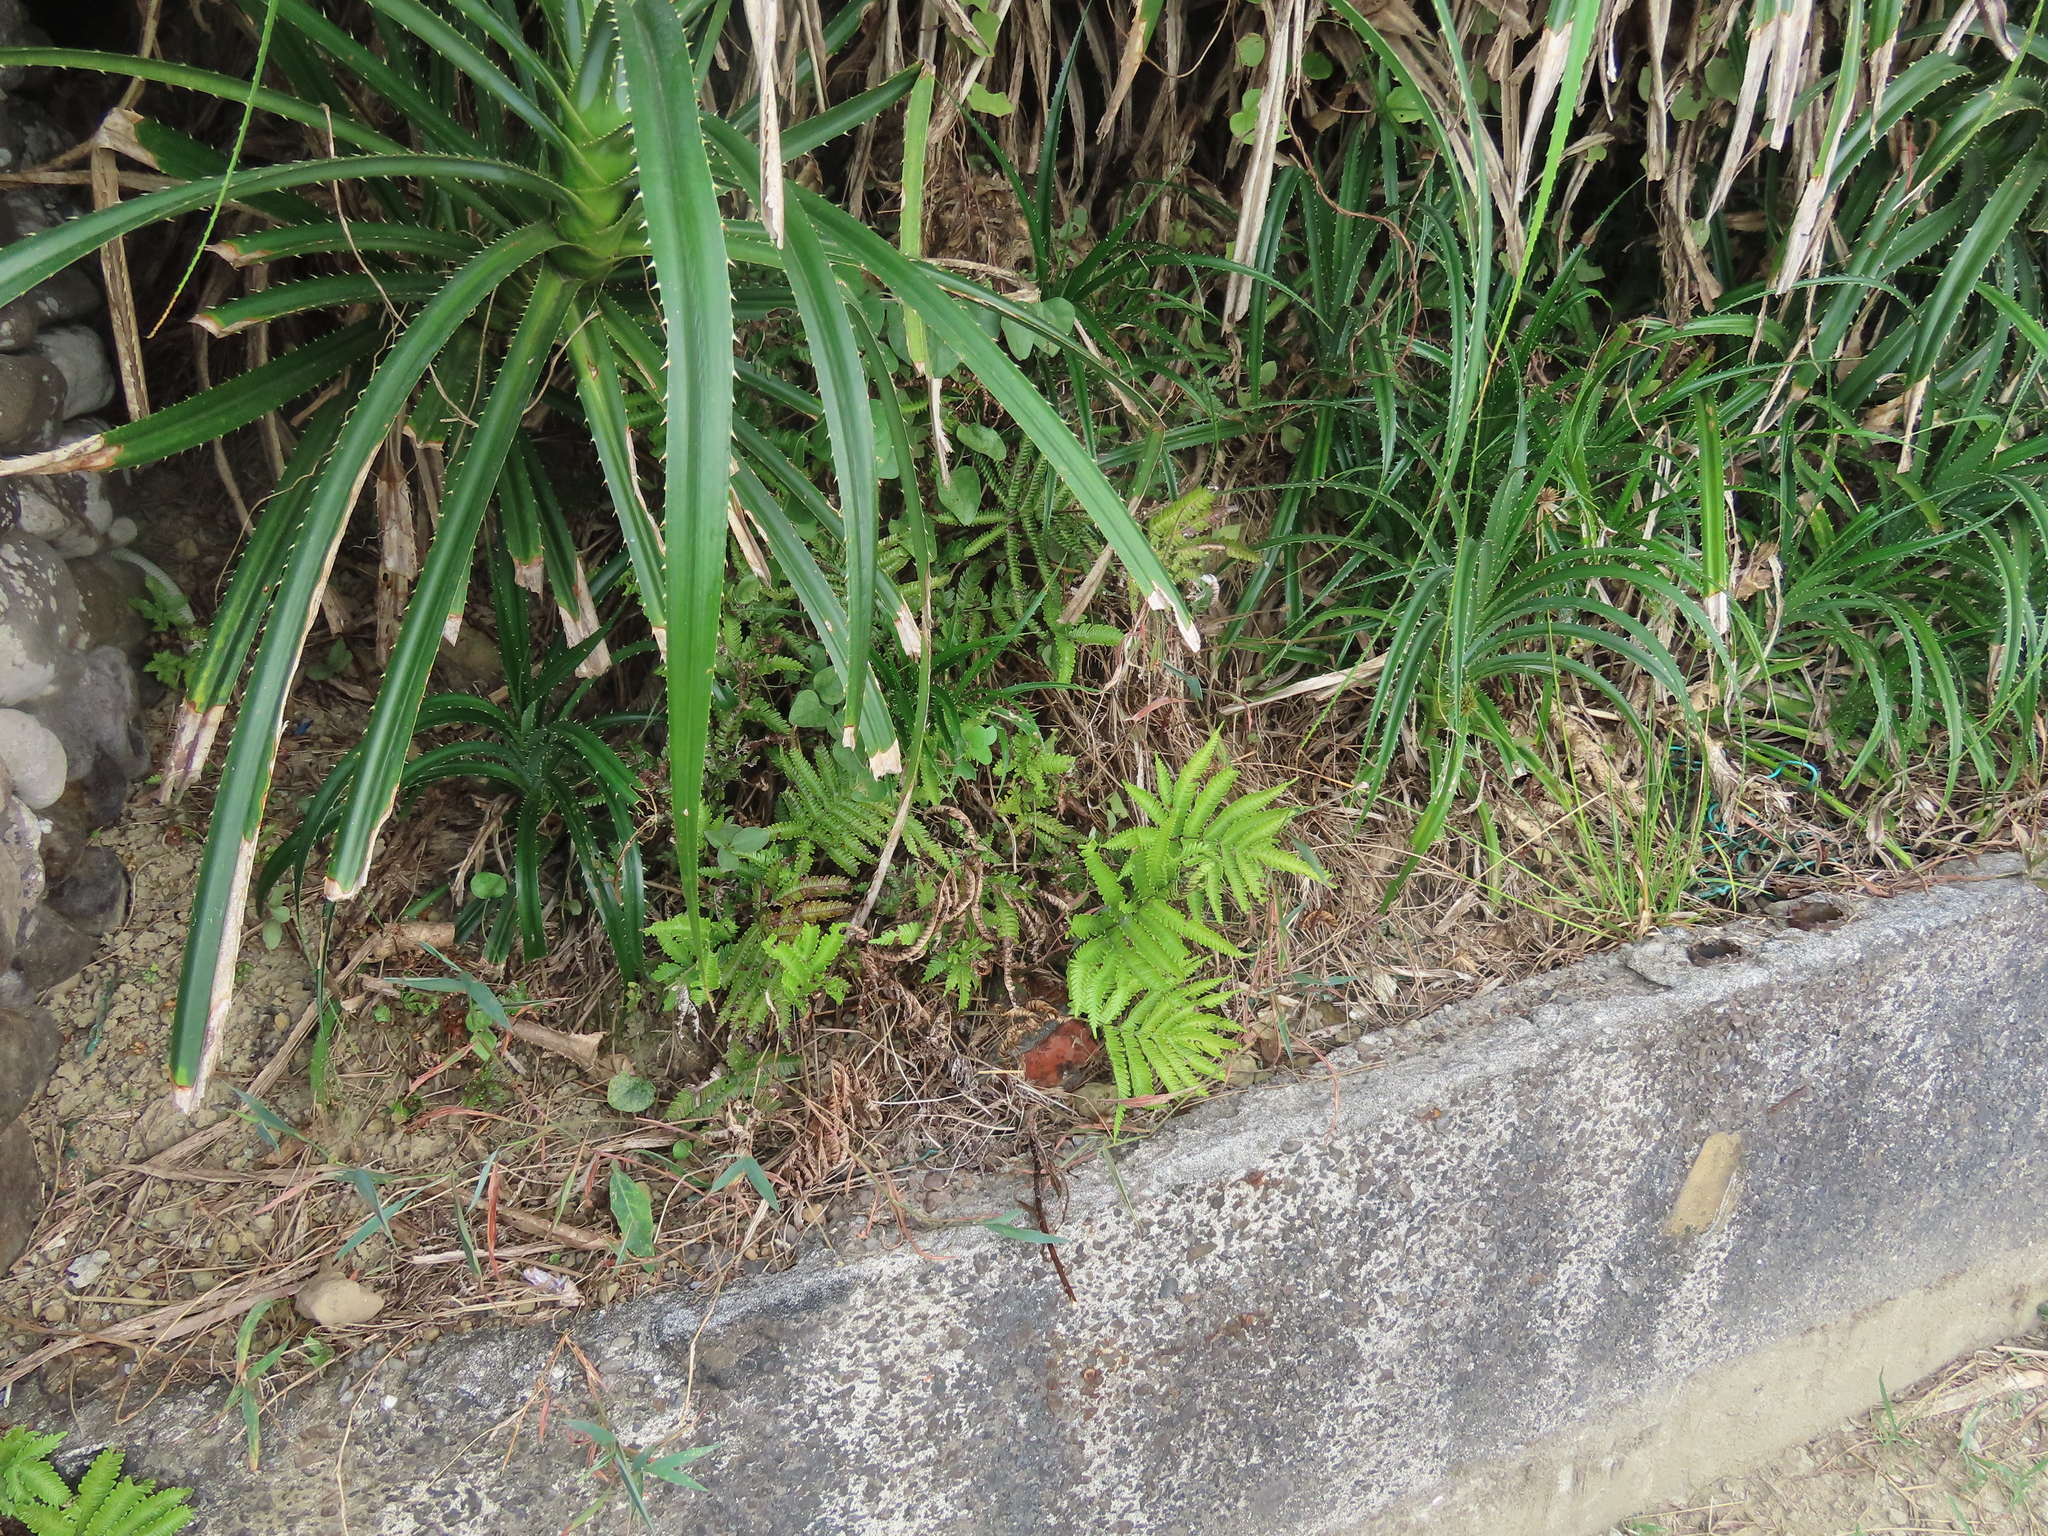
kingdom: Plantae
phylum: Tracheophyta
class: Polypodiopsida
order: Polypodiales
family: Pteridaceae
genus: Pteris
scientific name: Pteris minor
